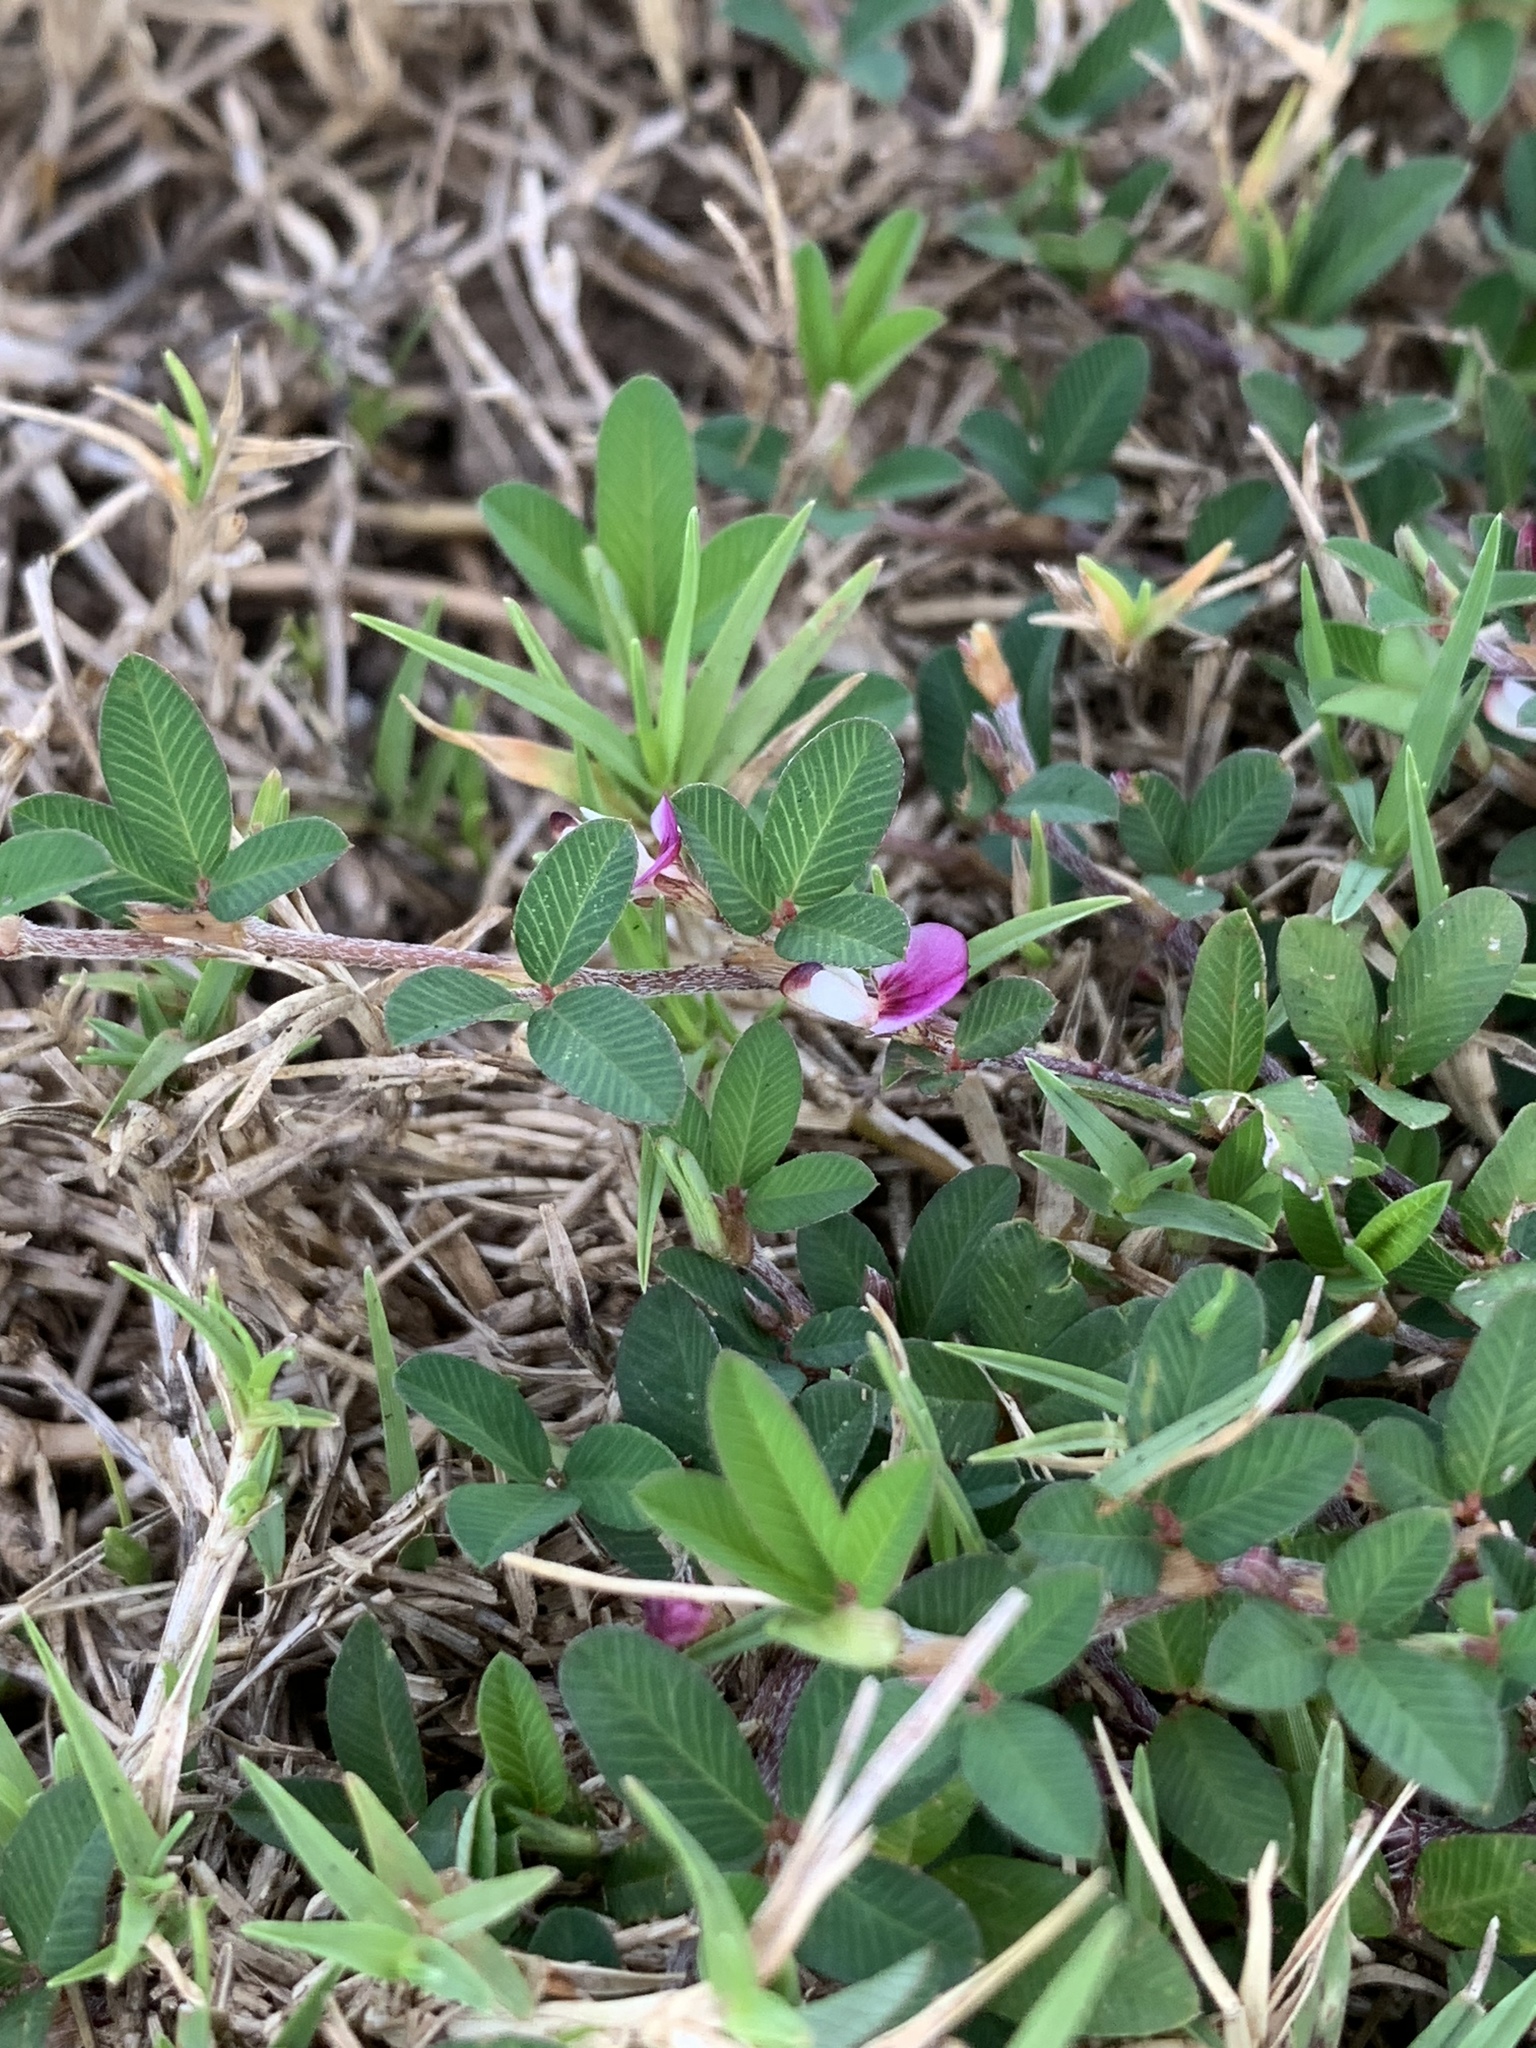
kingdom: Plantae
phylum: Tracheophyta
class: Magnoliopsida
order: Fabales
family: Fabaceae
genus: Kummerowia
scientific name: Kummerowia striata
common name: Japanese clover
